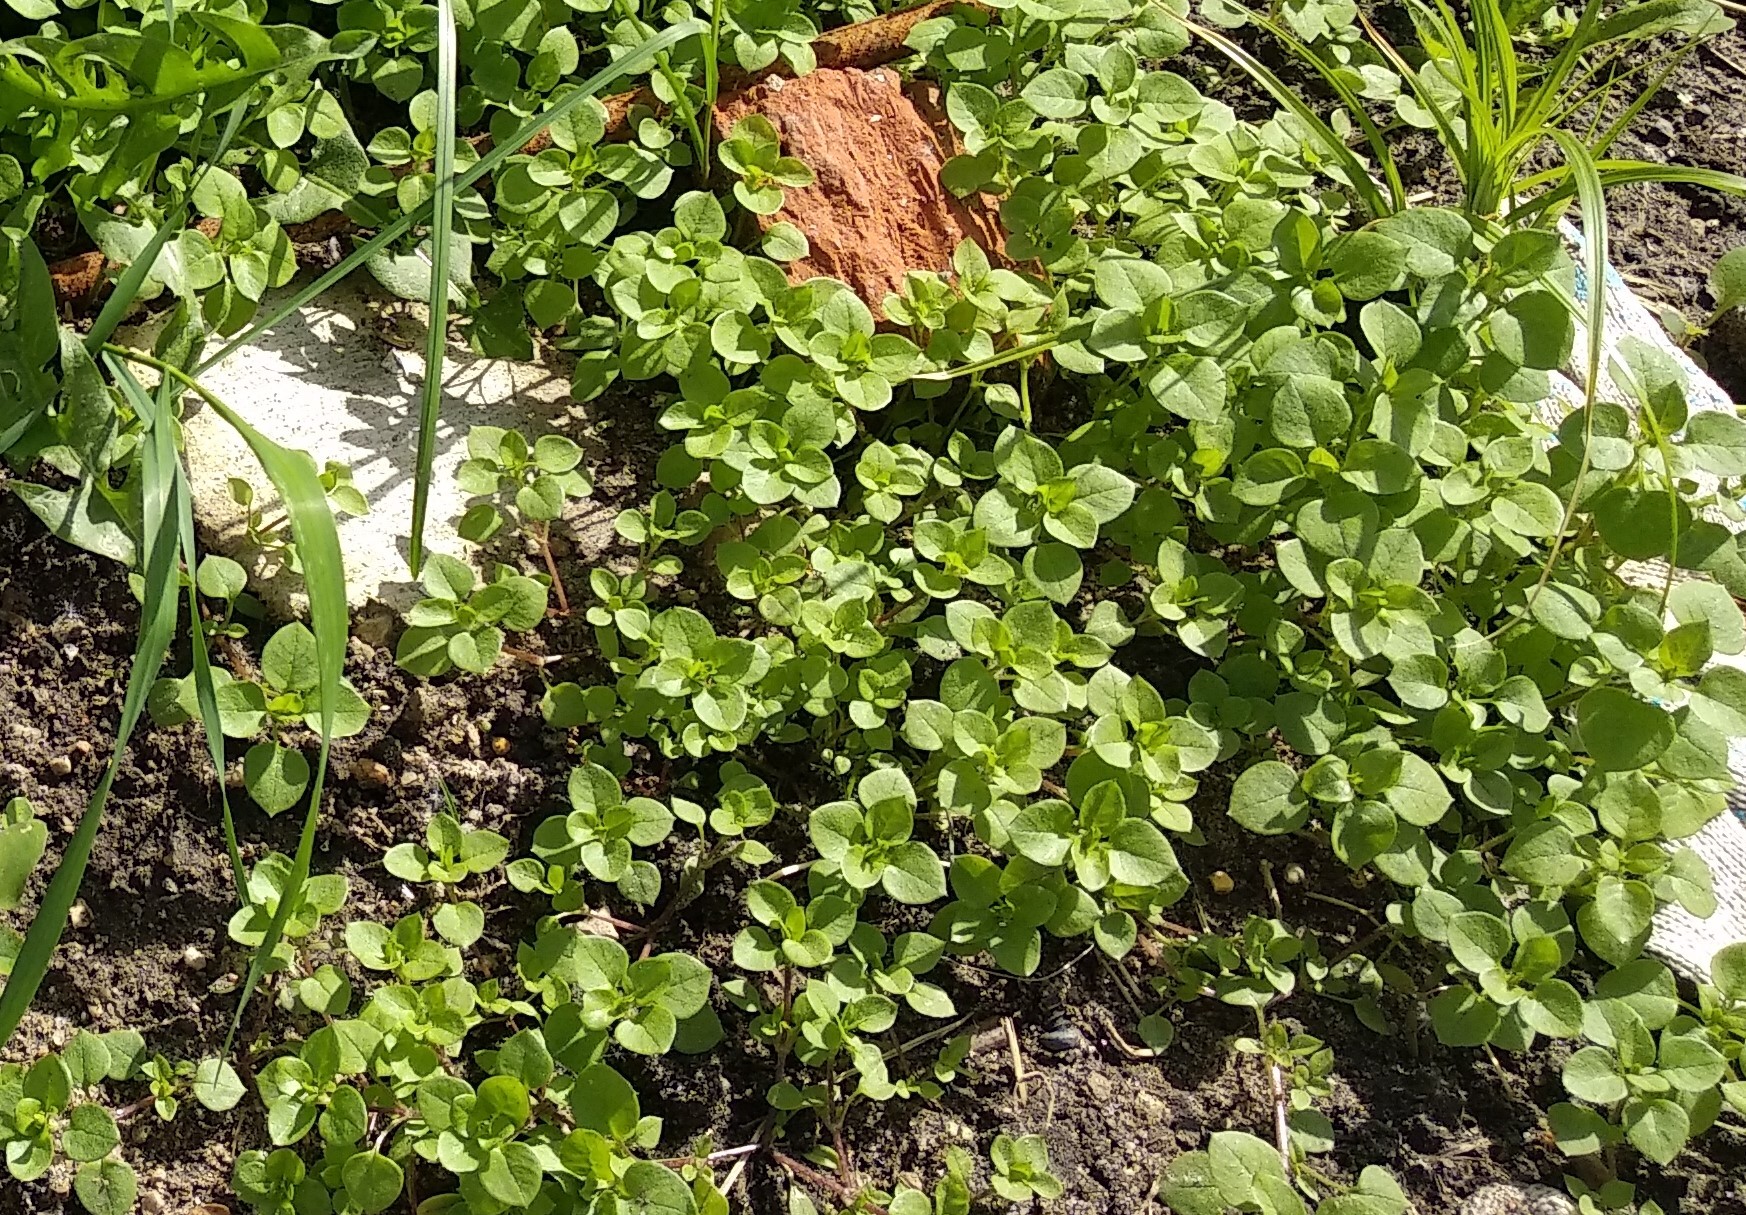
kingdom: Plantae
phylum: Tracheophyta
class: Magnoliopsida
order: Caryophyllales
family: Caryophyllaceae
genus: Stellaria
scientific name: Stellaria media
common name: Common chickweed
